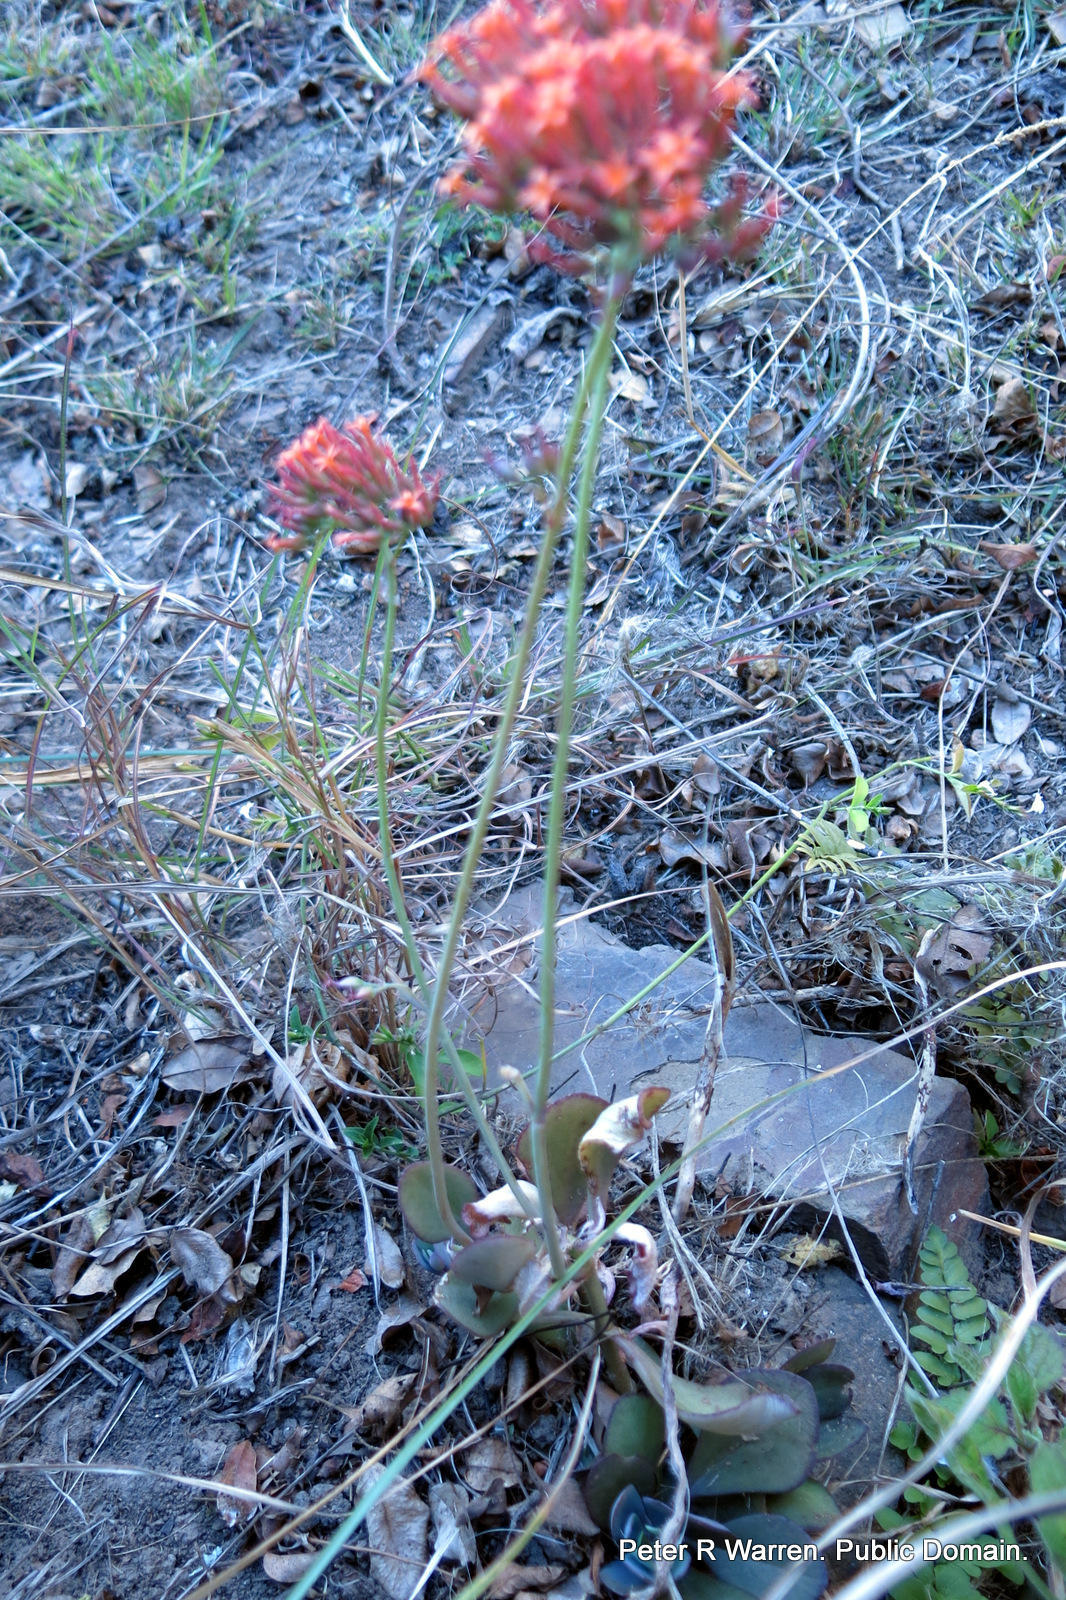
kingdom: Plantae
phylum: Tracheophyta
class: Magnoliopsida
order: Saxifragales
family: Crassulaceae
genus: Kalanchoe
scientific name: Kalanchoe rotundifolia
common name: Common kalanchoe
